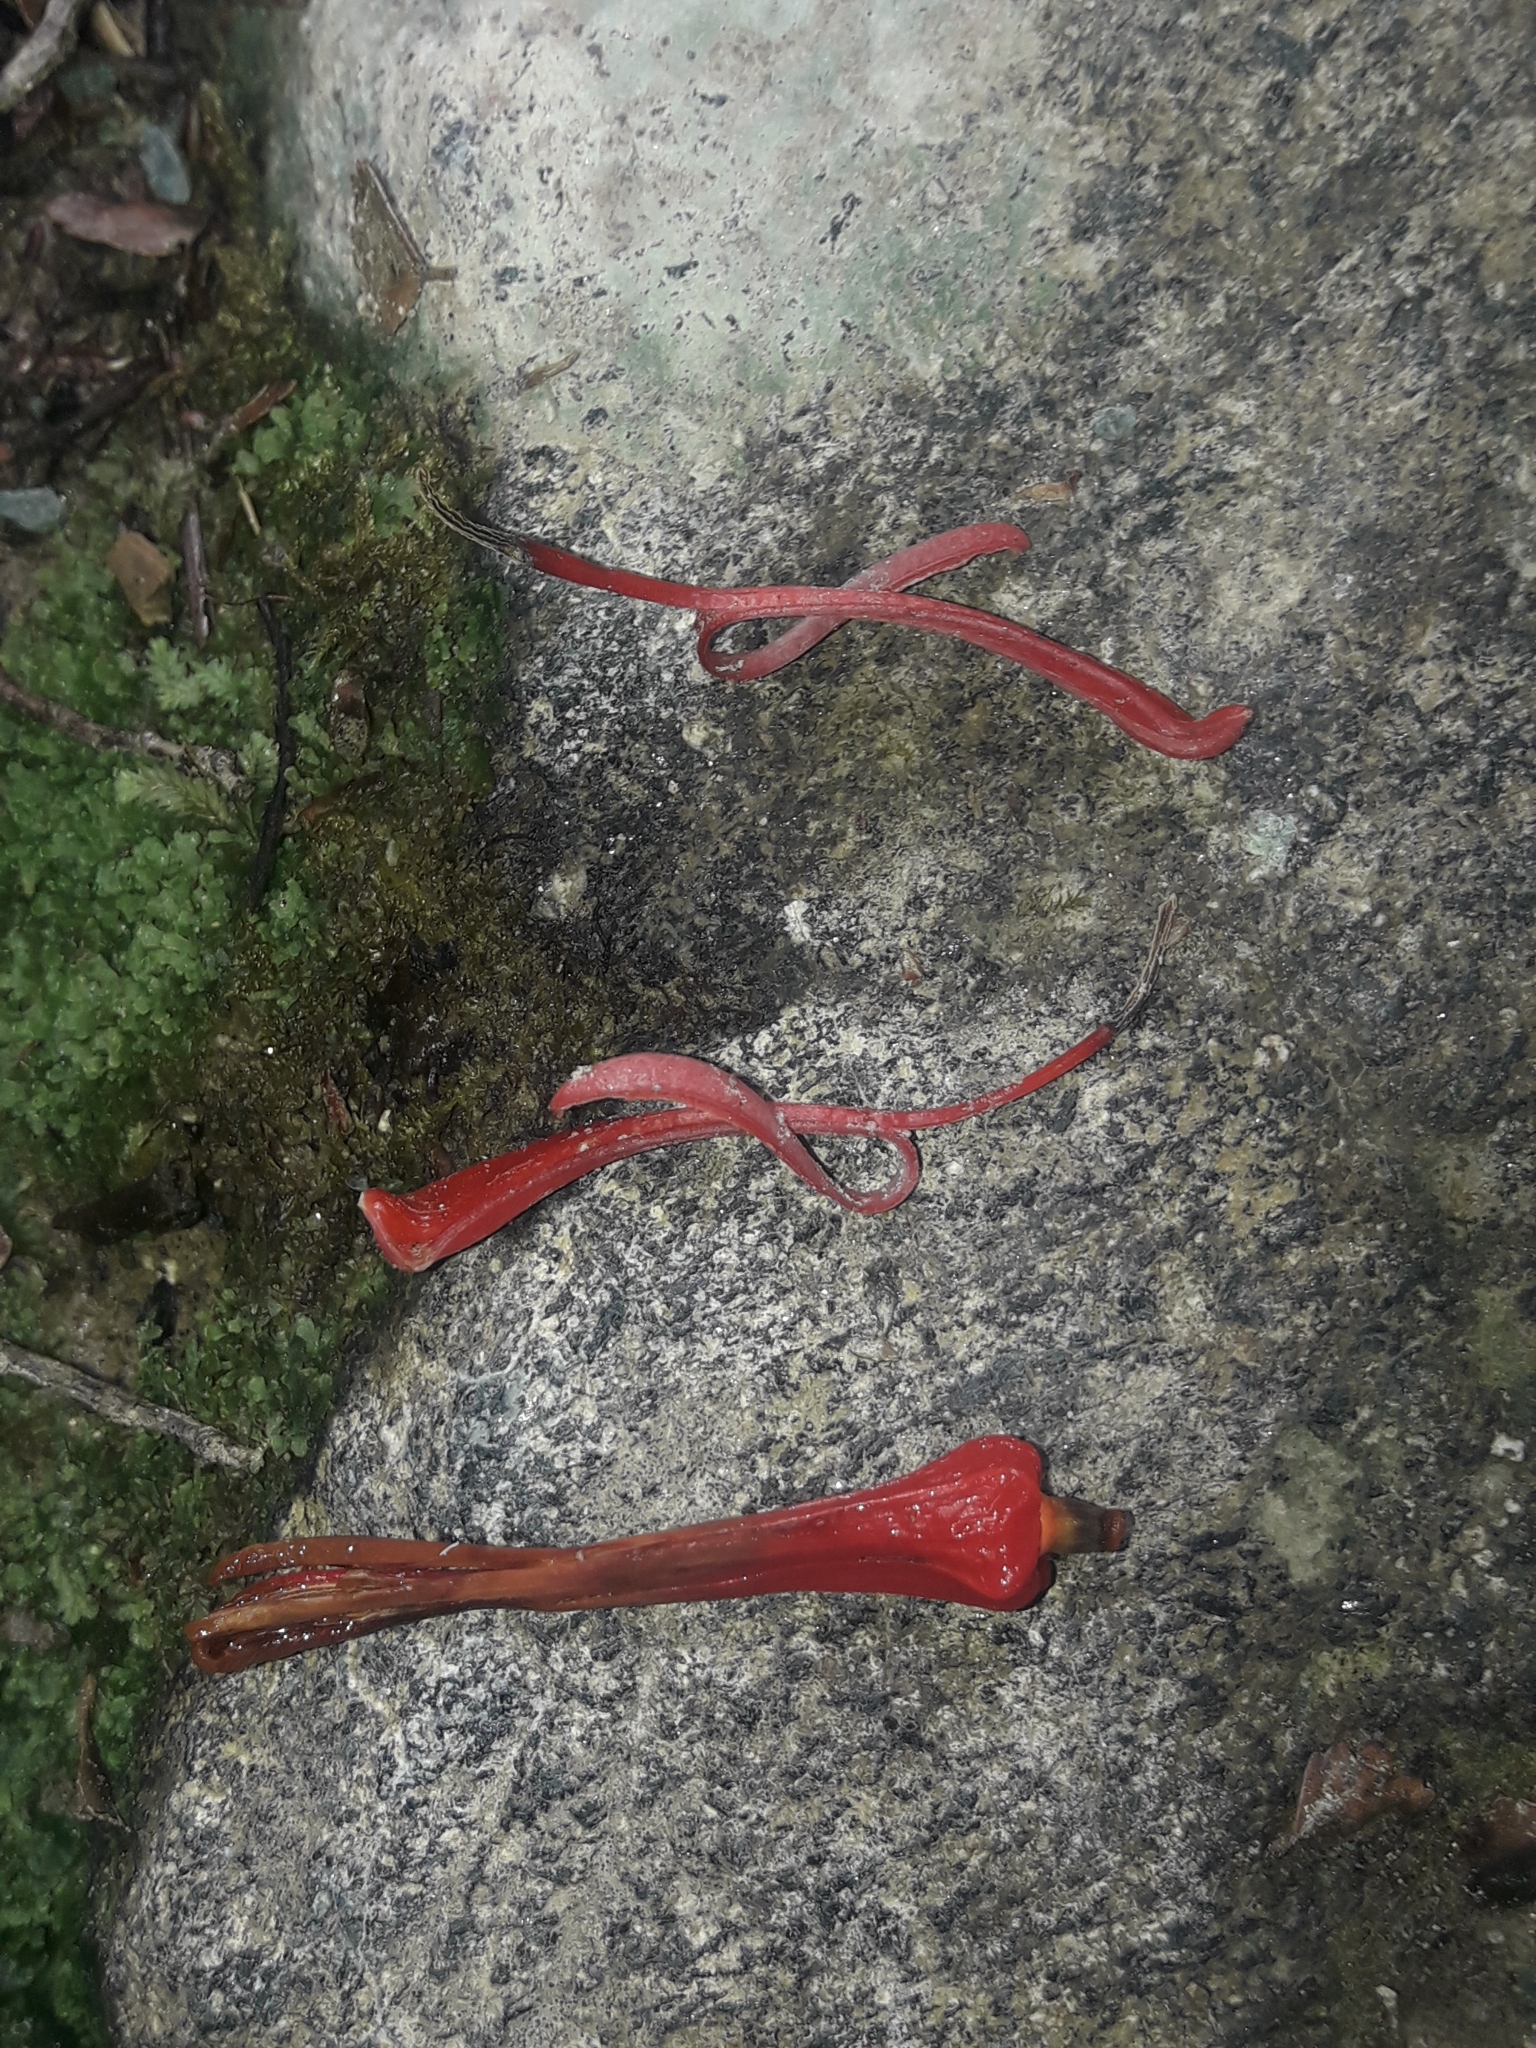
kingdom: Plantae
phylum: Tracheophyta
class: Magnoliopsida
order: Santalales
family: Loranthaceae
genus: Peraxilla
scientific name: Peraxilla tetrapetala
